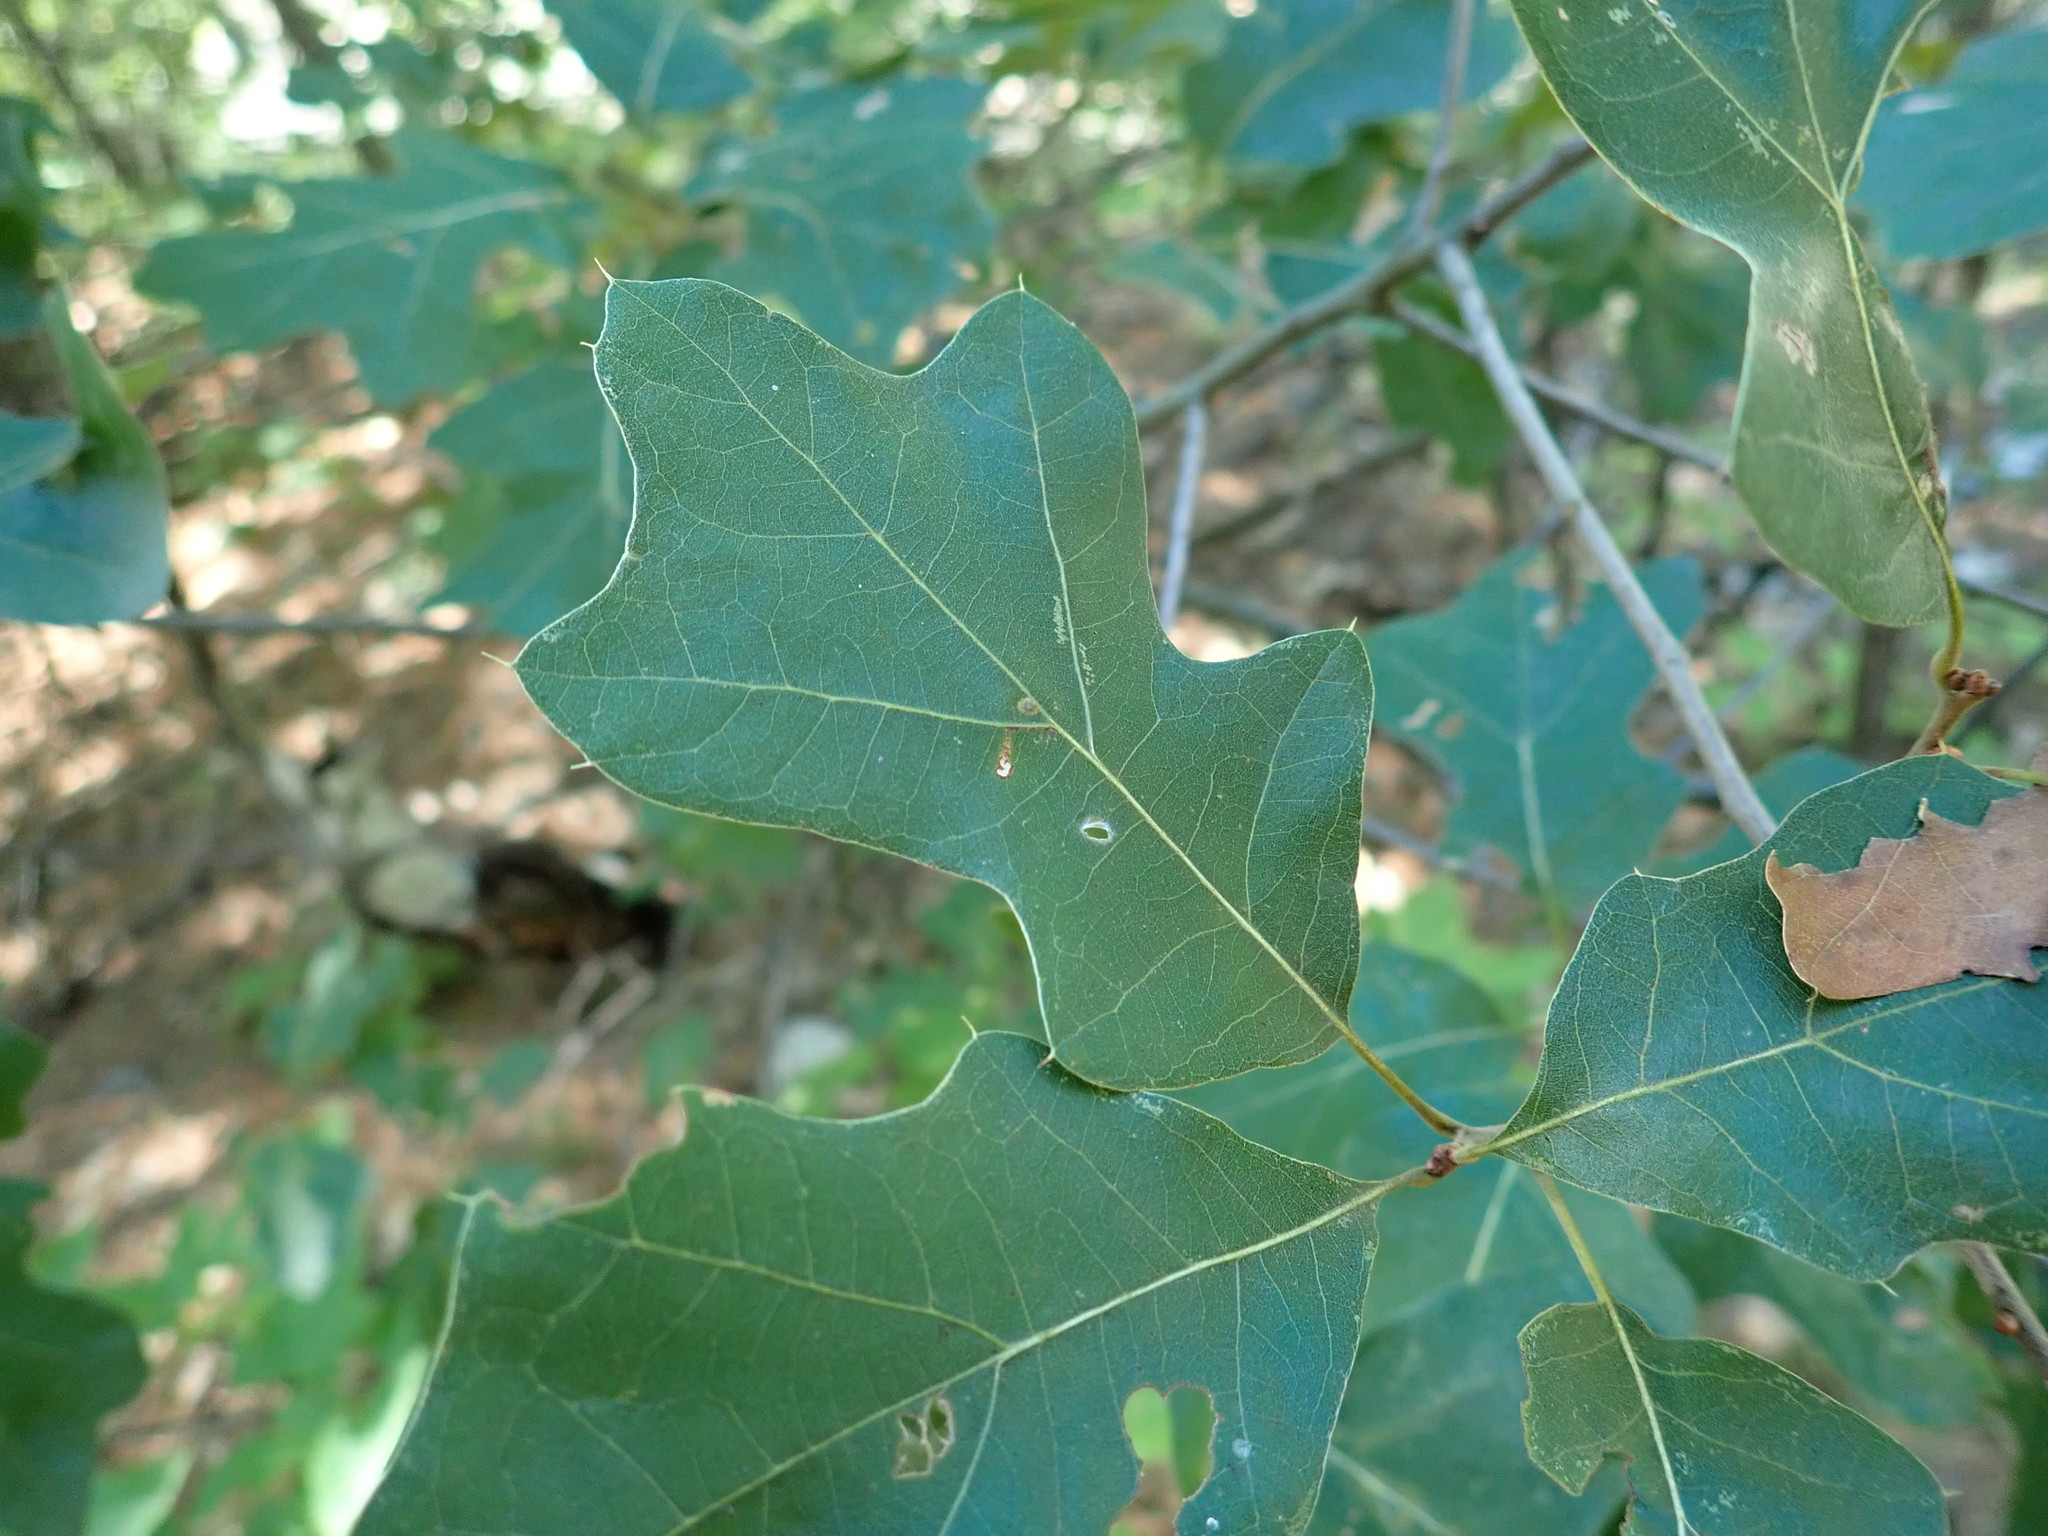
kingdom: Plantae
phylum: Tracheophyta
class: Magnoliopsida
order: Fagales
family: Fagaceae
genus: Quercus
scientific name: Quercus ilicifolia
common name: Bear oak
